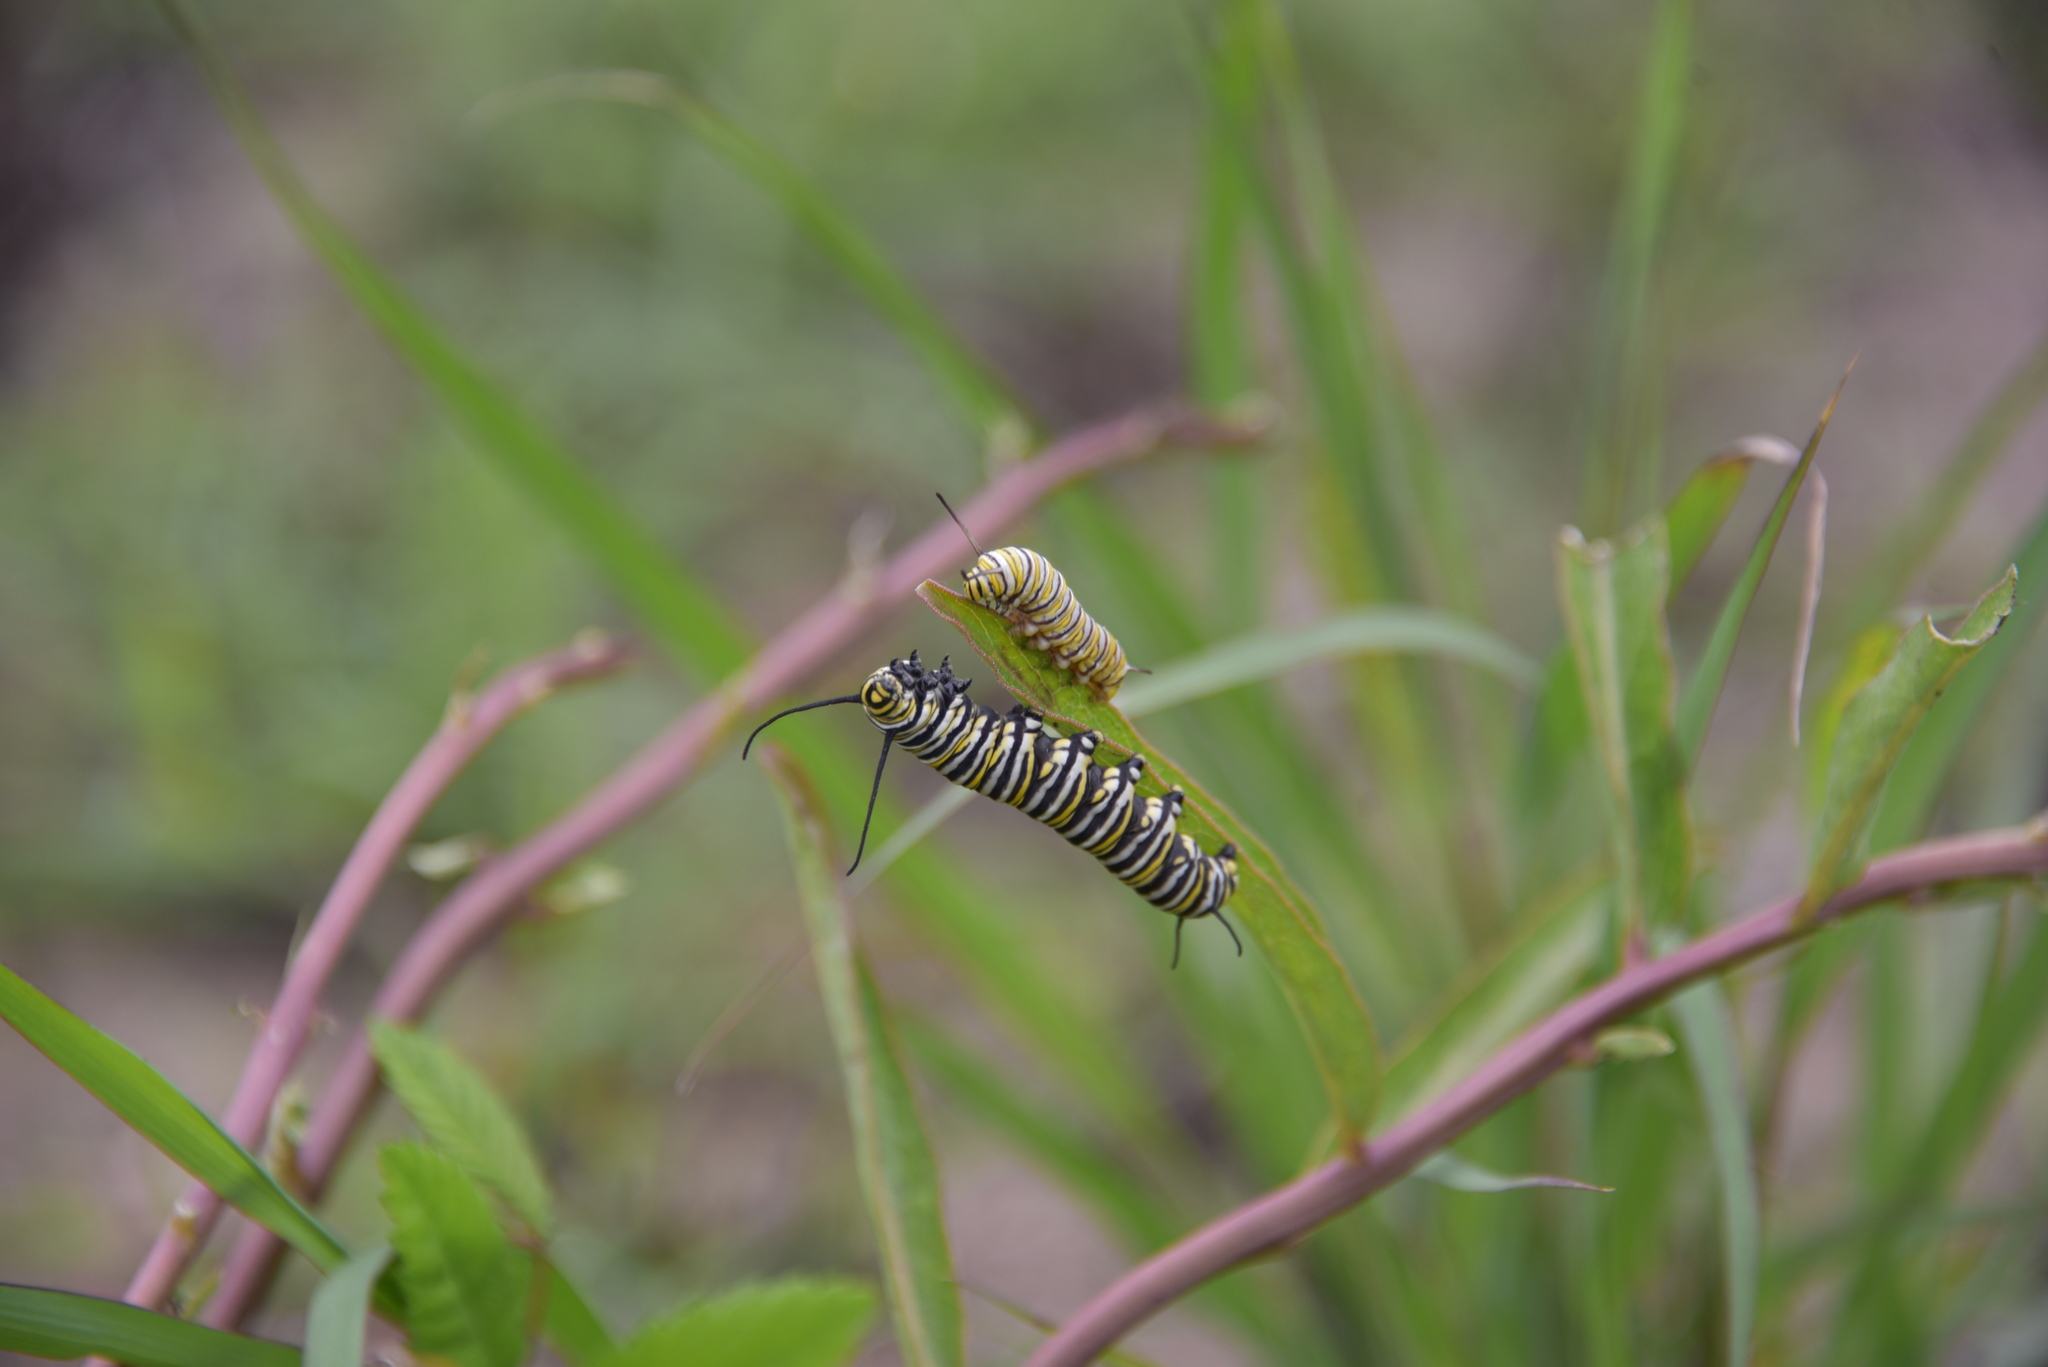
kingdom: Animalia
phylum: Arthropoda
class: Insecta
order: Lepidoptera
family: Nymphalidae
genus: Danaus
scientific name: Danaus plexippus
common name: Monarch
